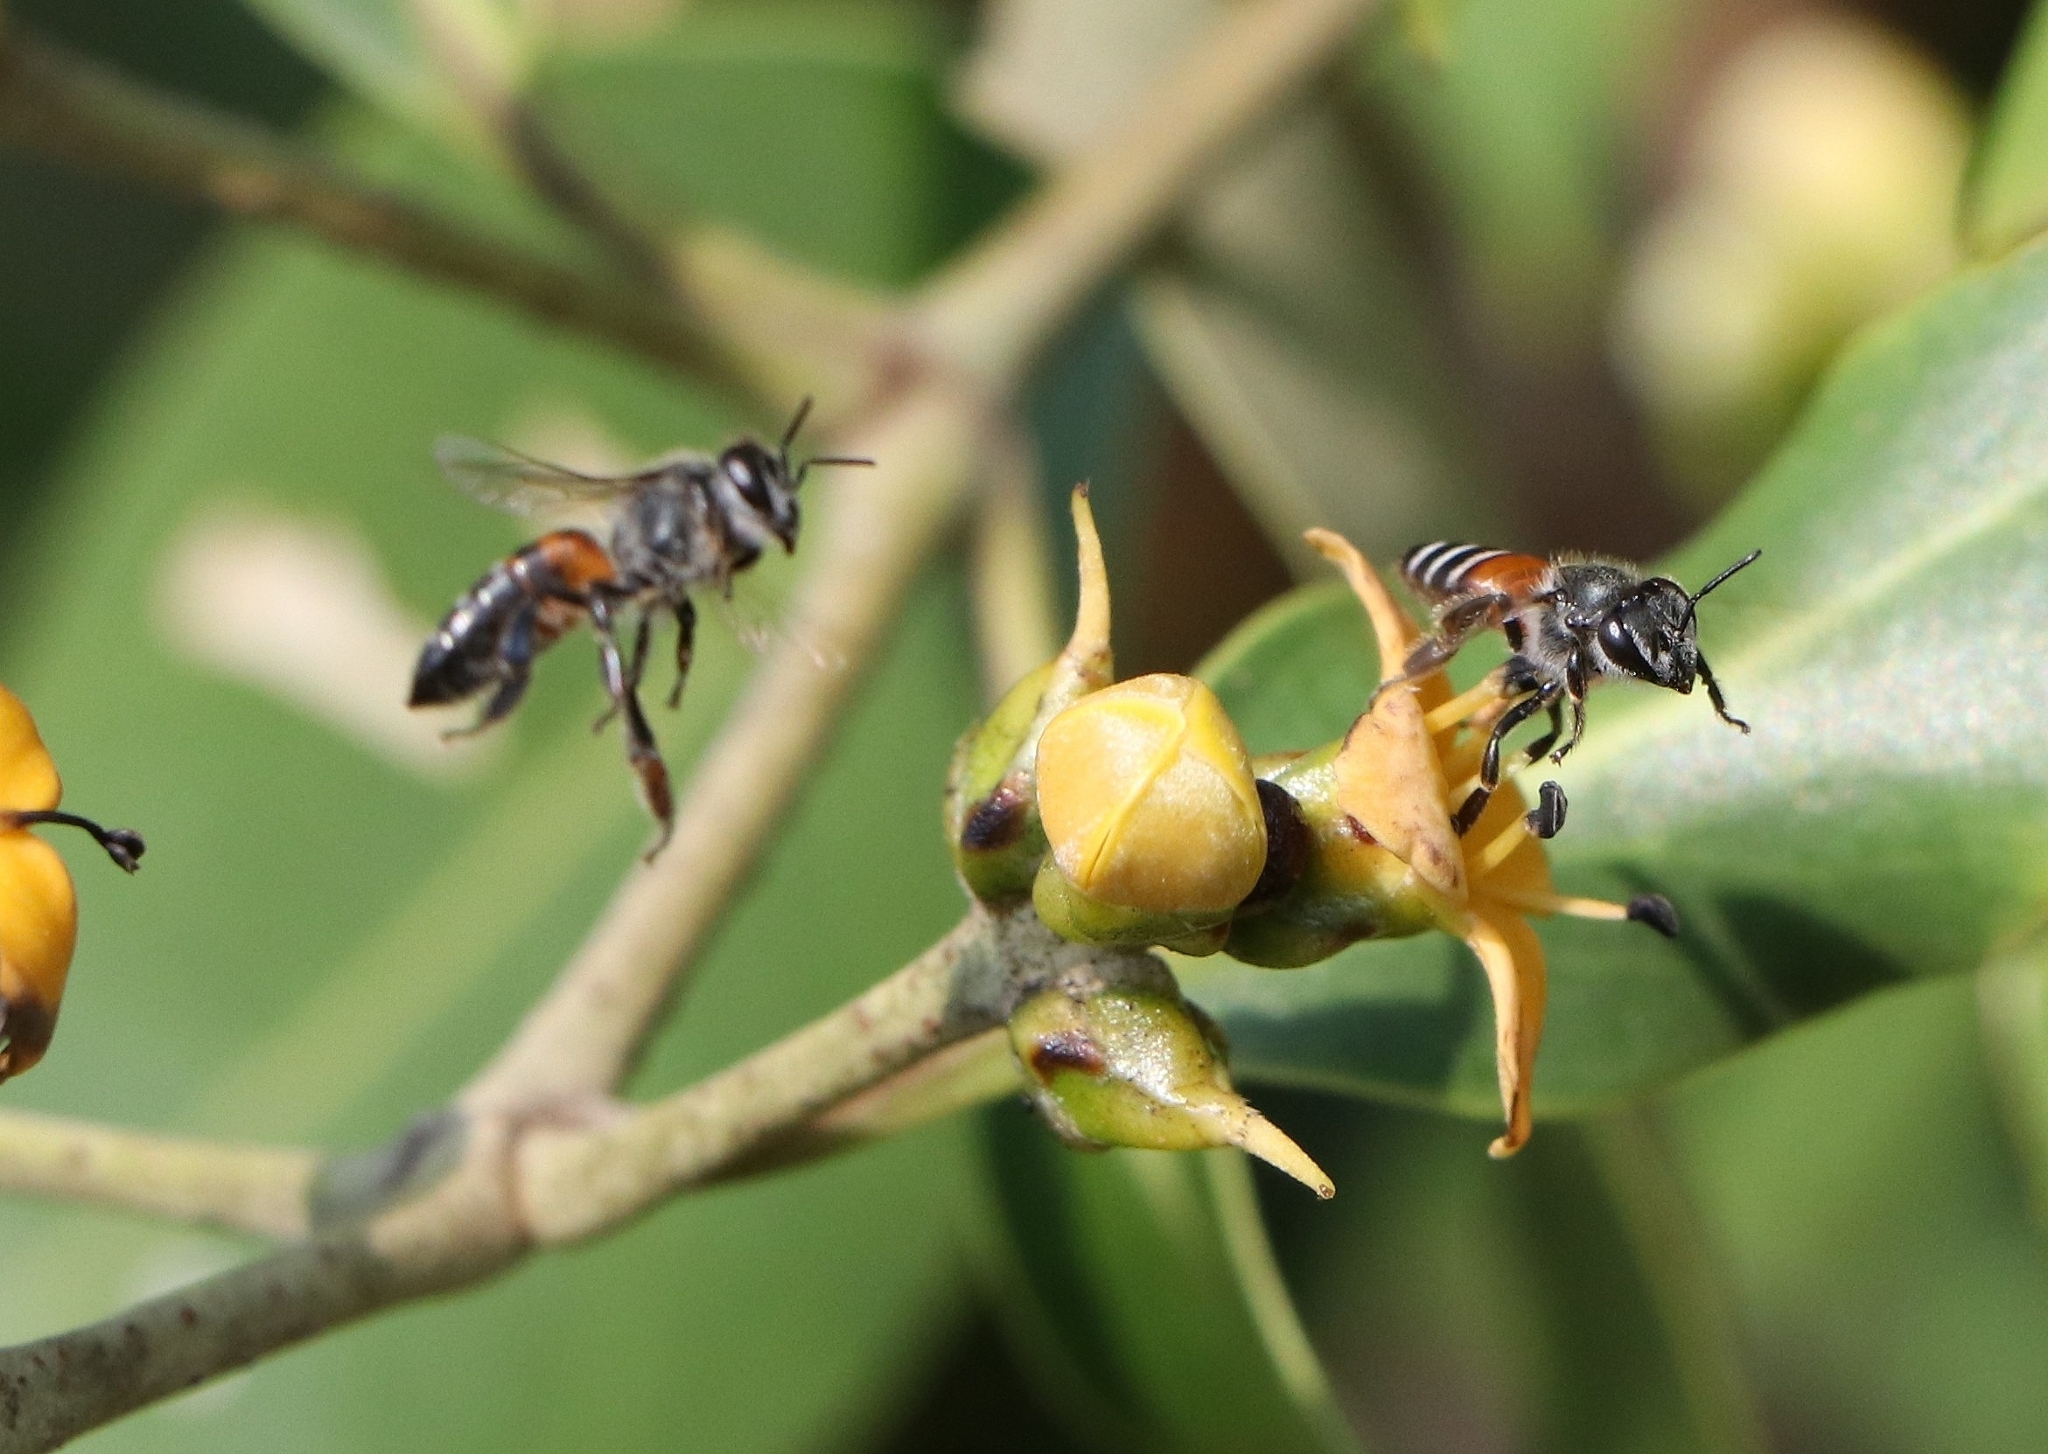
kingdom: Animalia
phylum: Arthropoda
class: Insecta
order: Hymenoptera
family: Apidae
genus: Apis
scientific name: Apis florea
